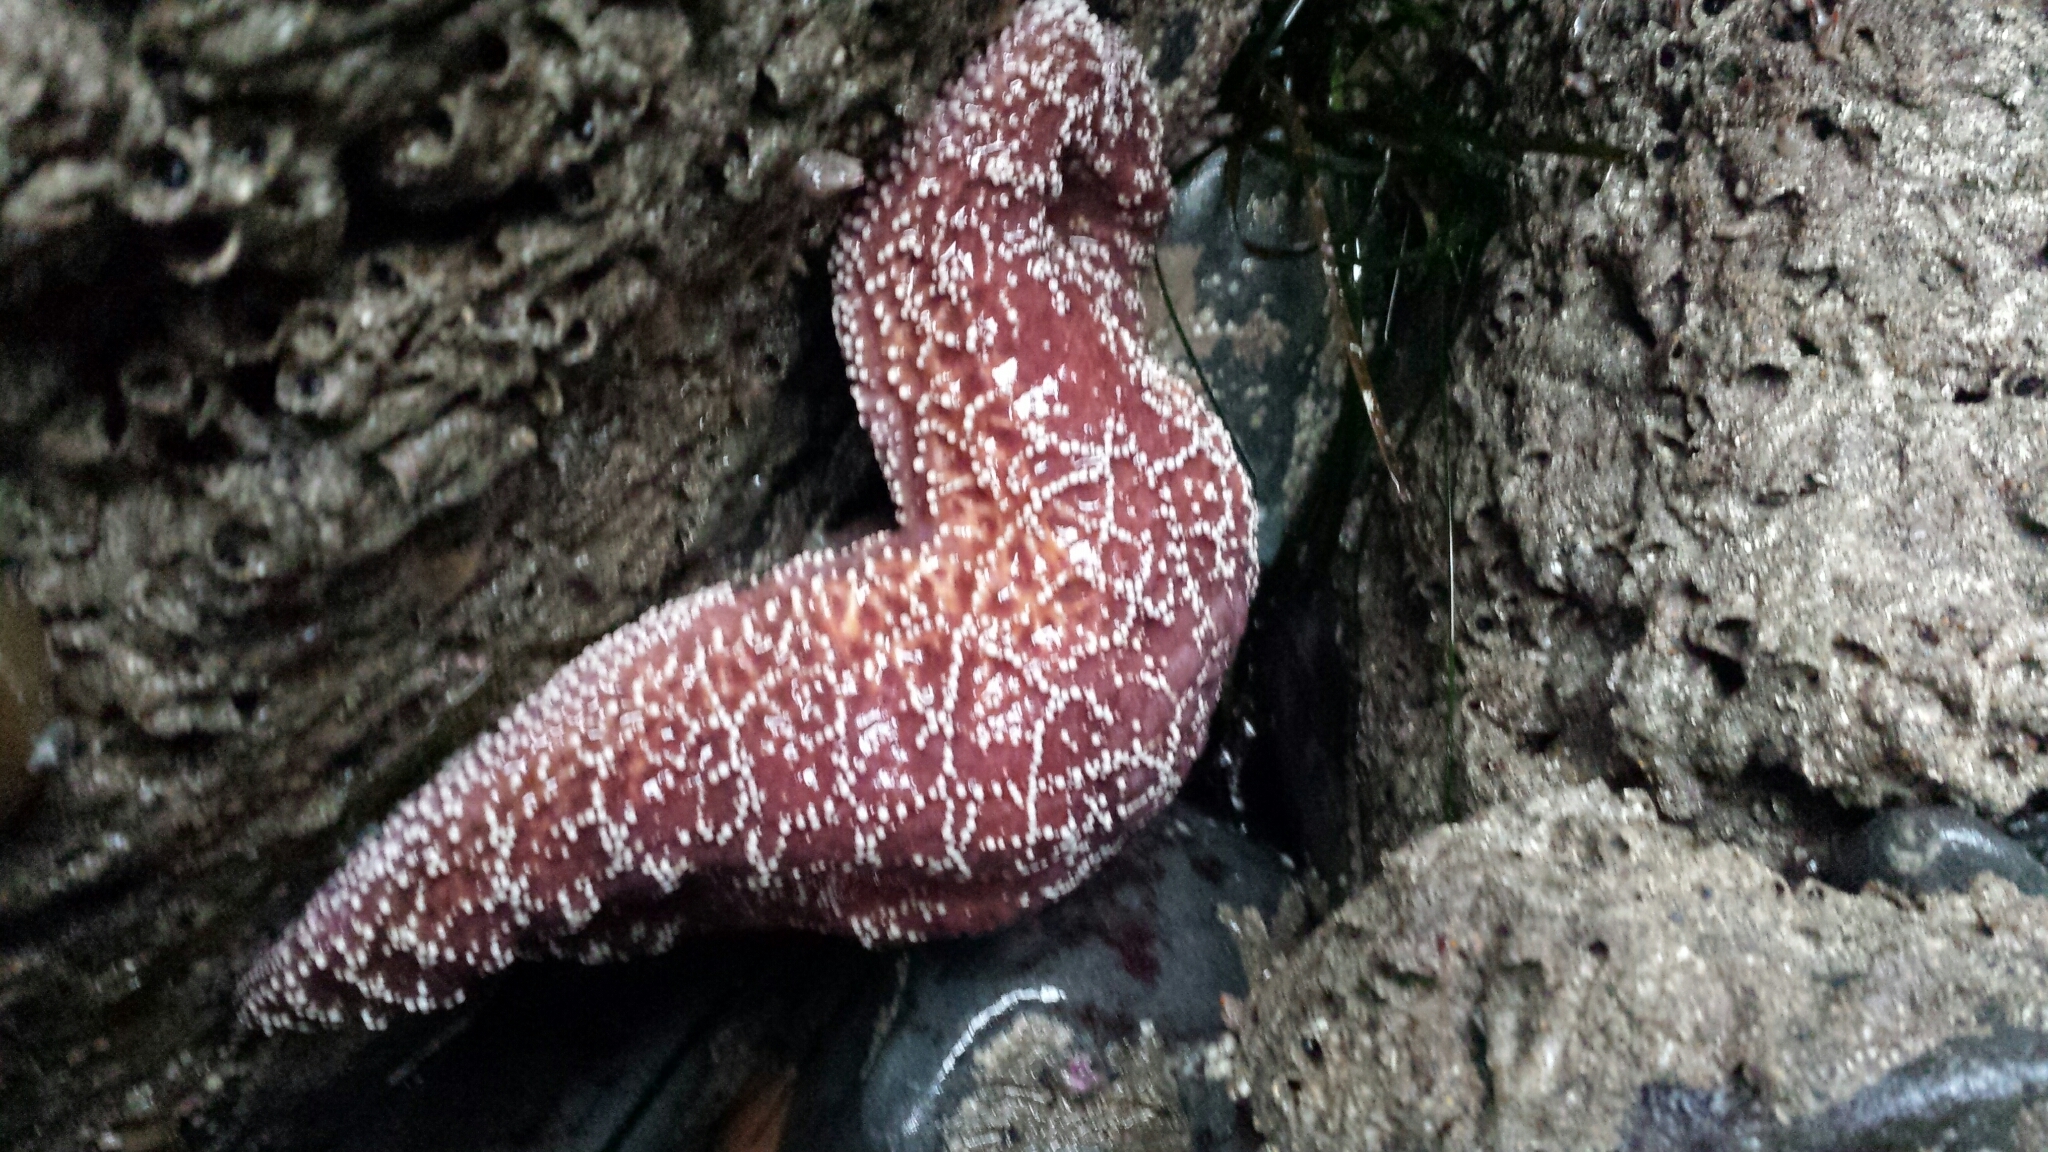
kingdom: Animalia
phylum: Echinodermata
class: Asteroidea
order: Forcipulatida
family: Asteriidae
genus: Pisaster
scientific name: Pisaster ochraceus
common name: Ochre stars
